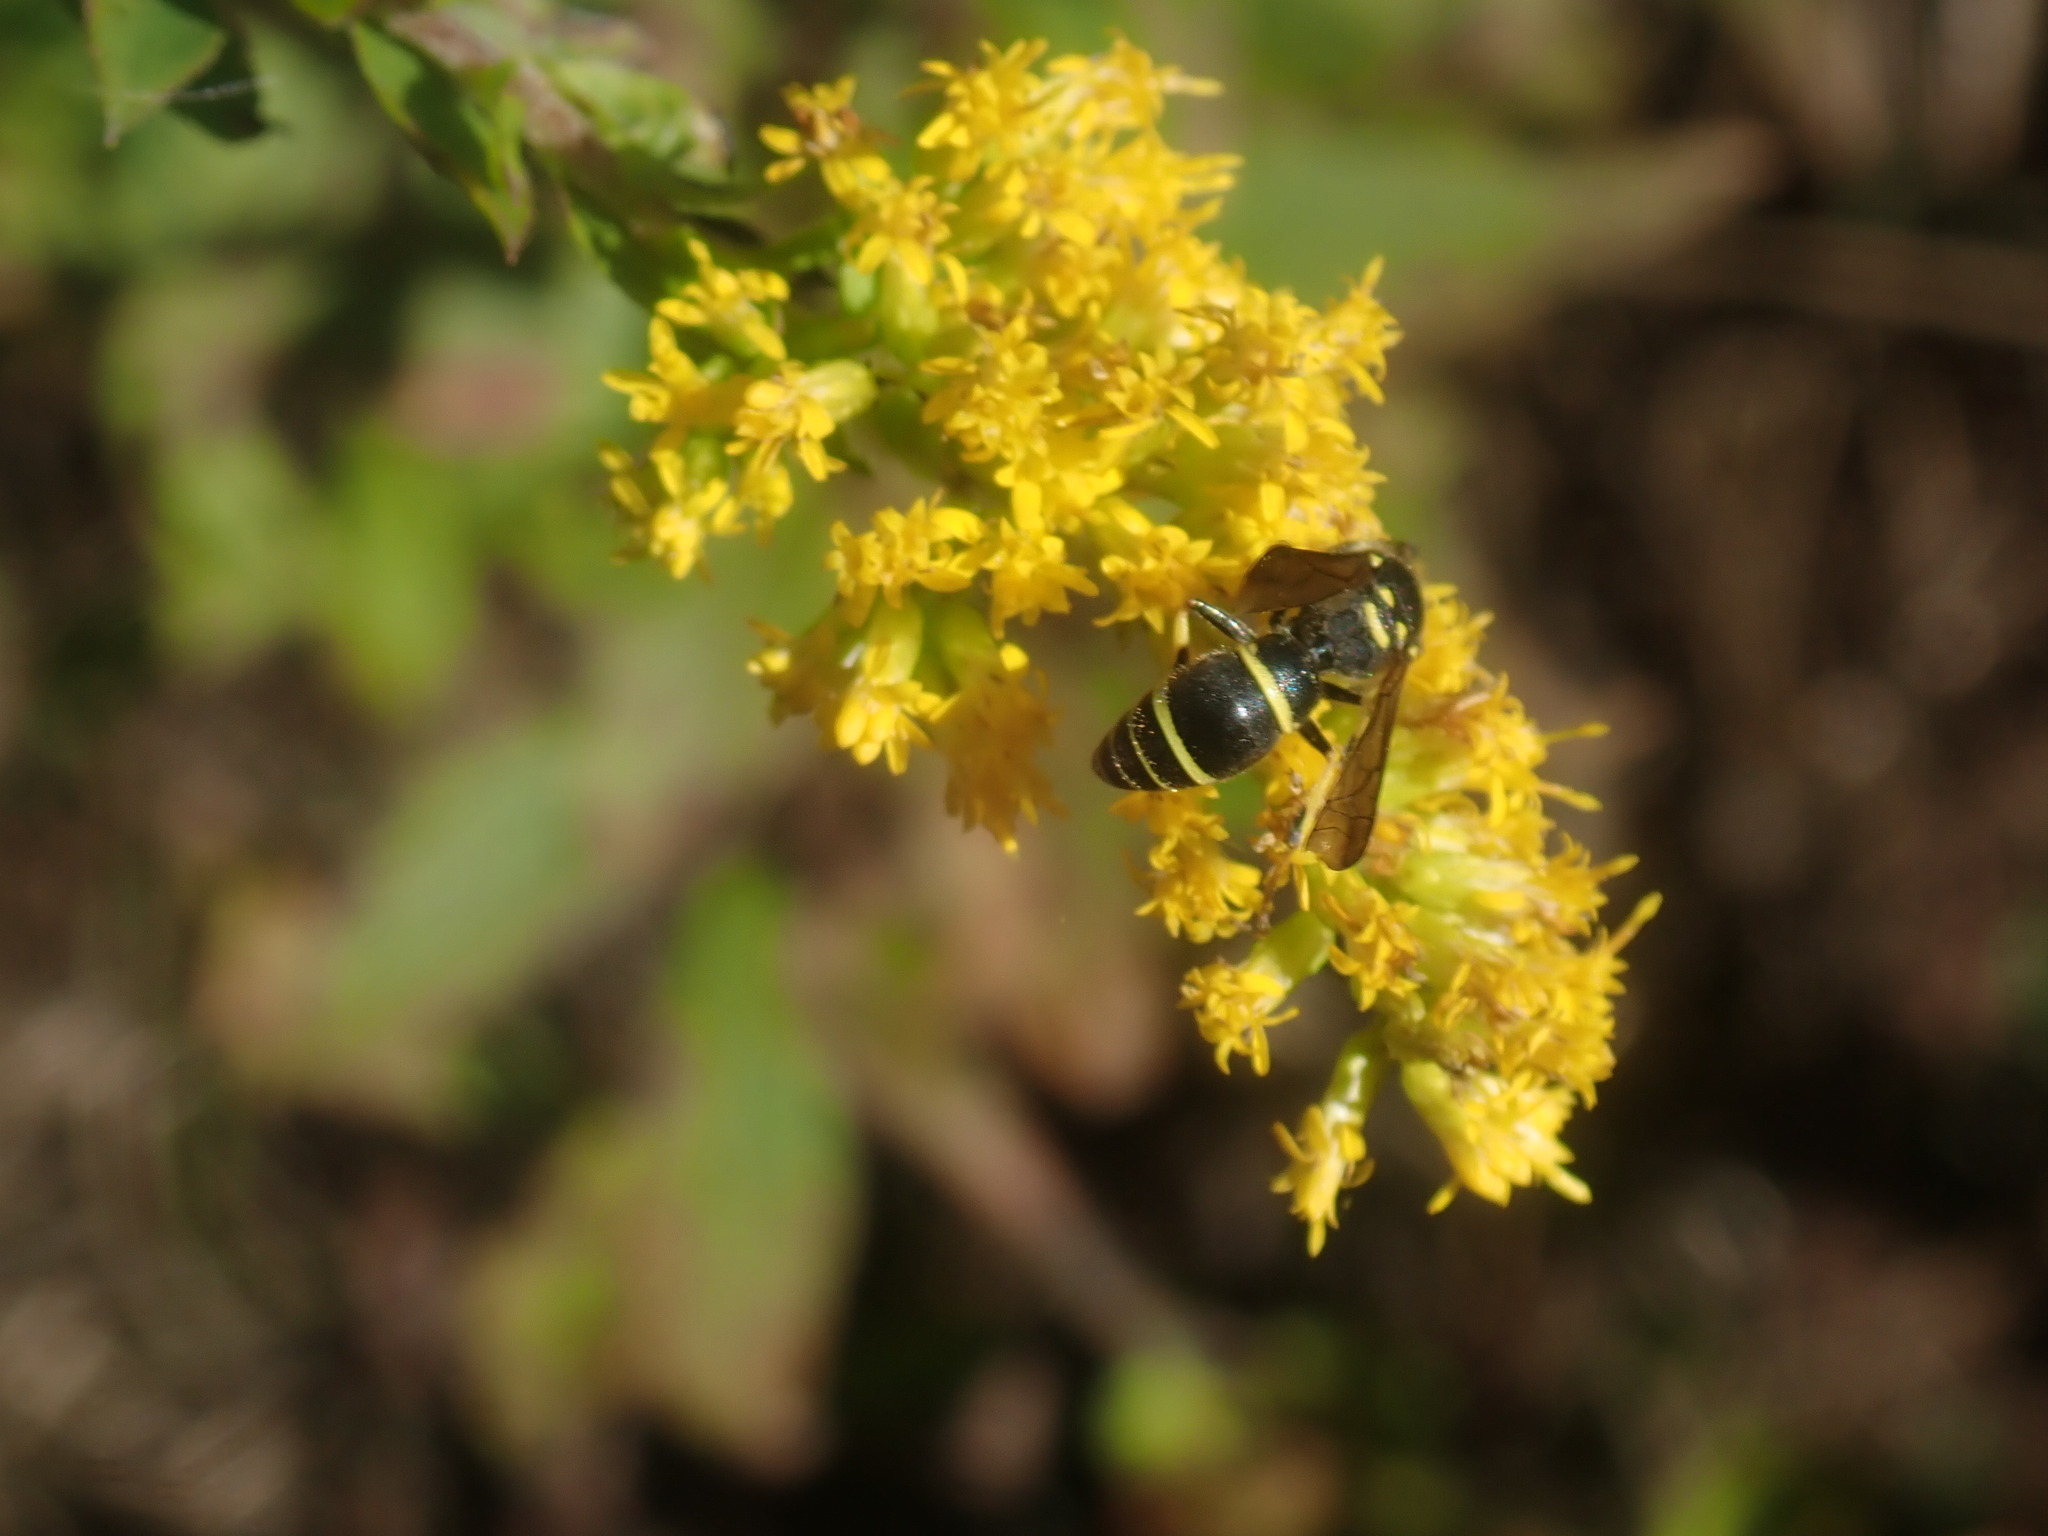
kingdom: Animalia
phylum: Arthropoda
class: Insecta
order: Hymenoptera
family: Vespidae
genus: Ancistrocerus
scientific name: Ancistrocerus adiabatus
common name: Bramble mason wasp
